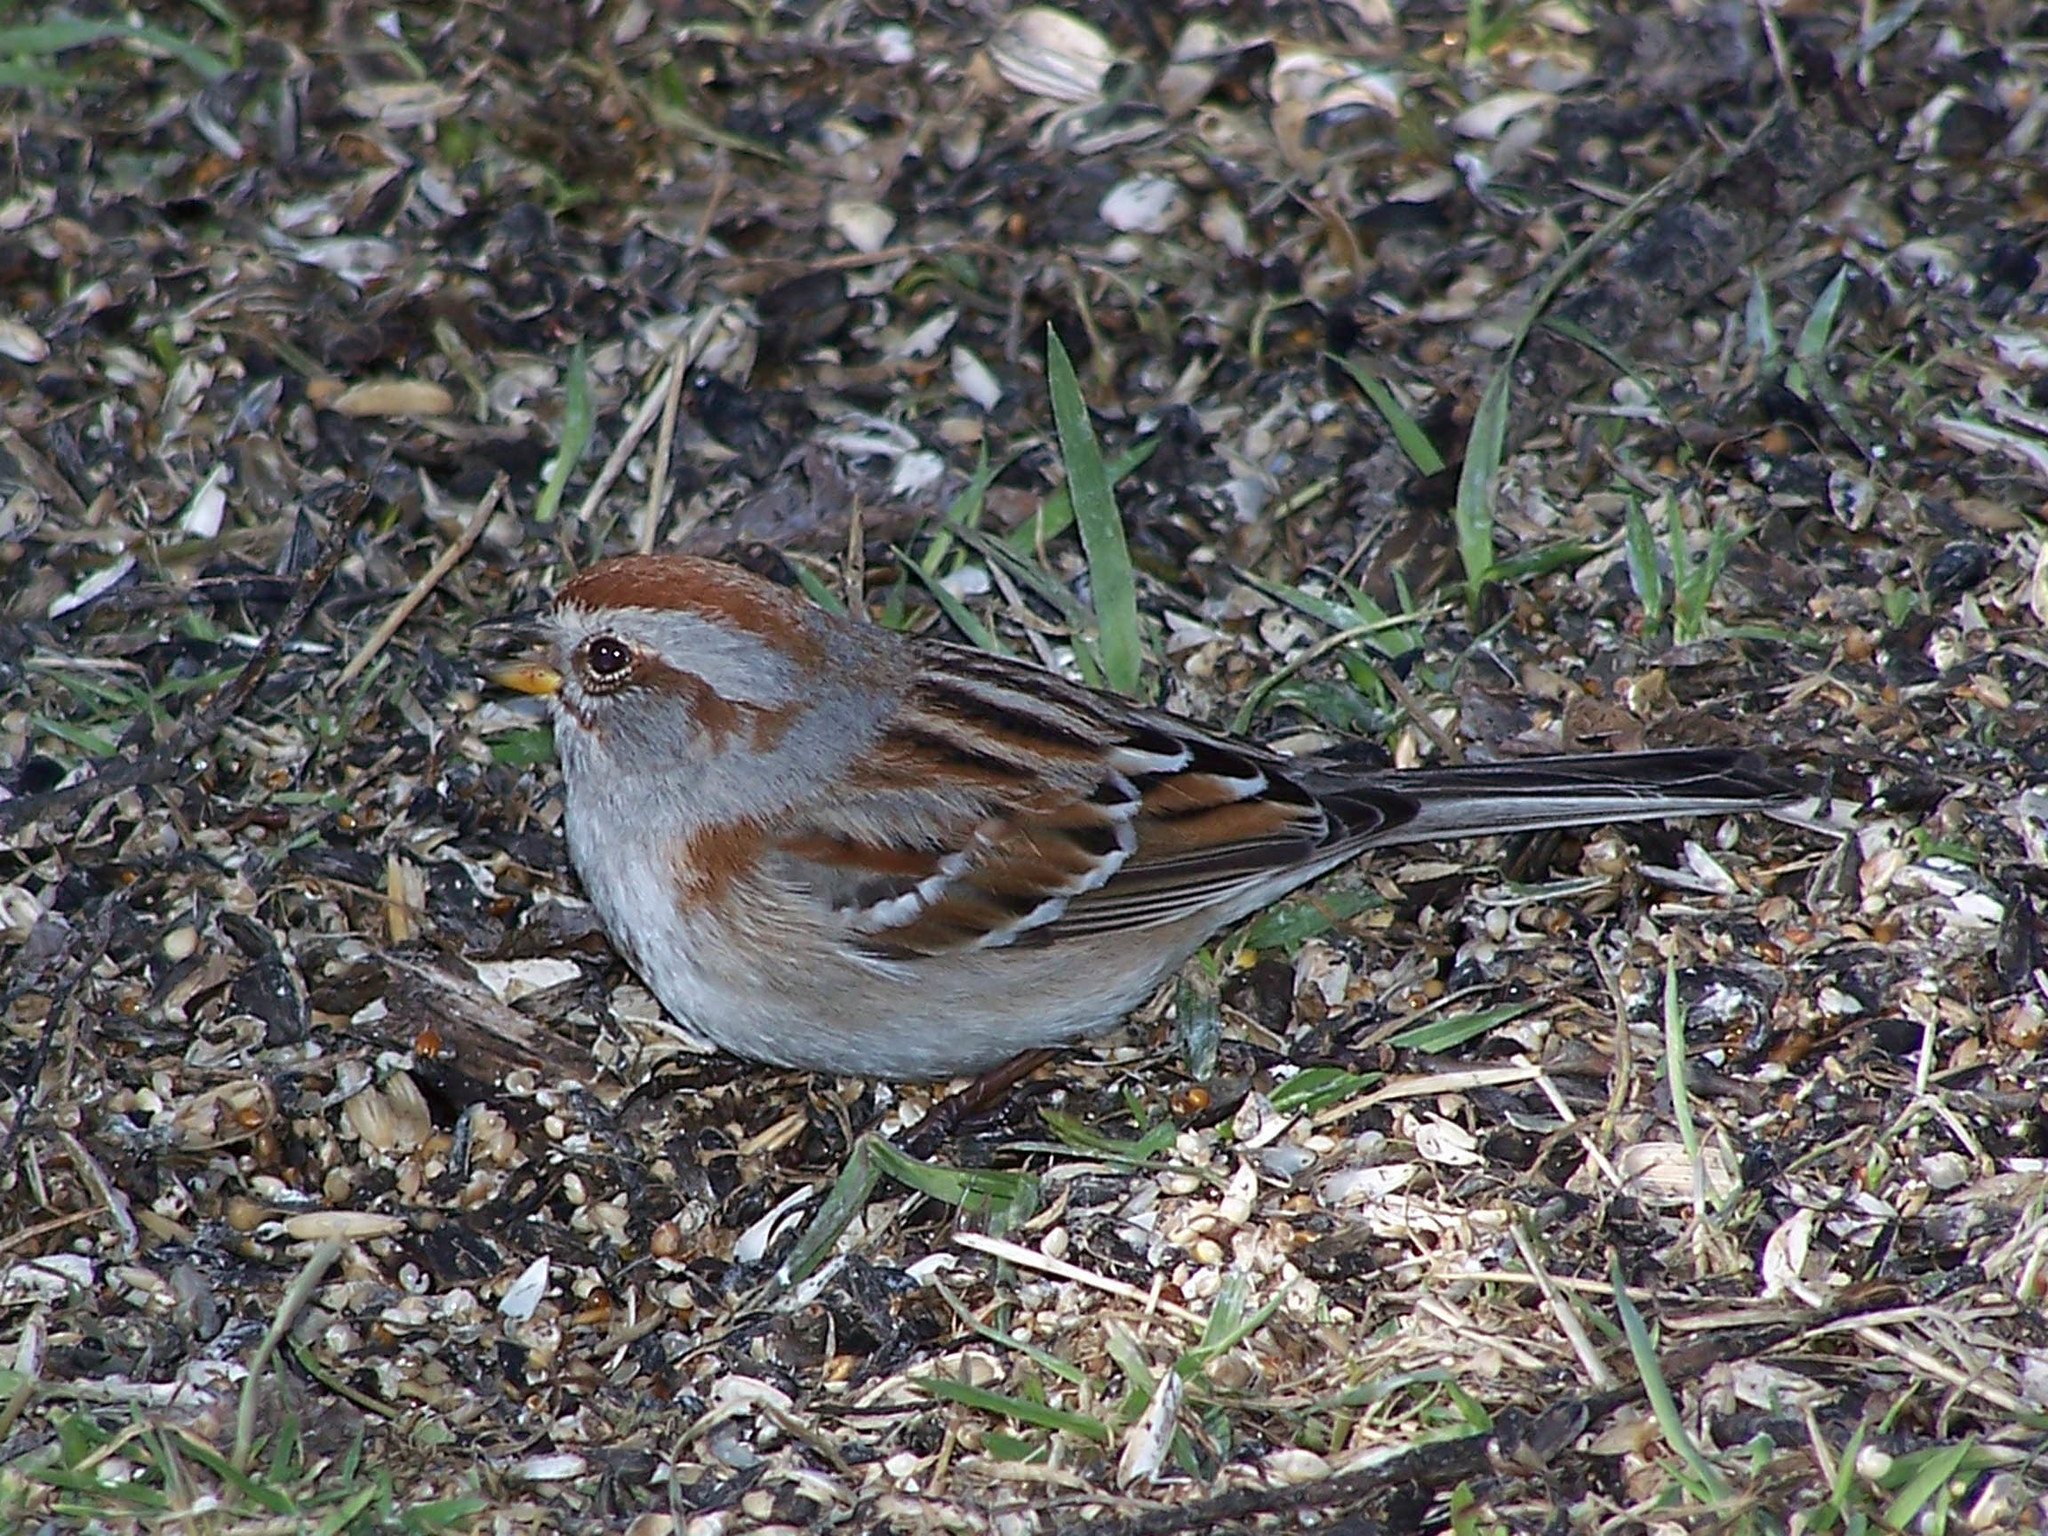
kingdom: Animalia
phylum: Chordata
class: Aves
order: Passeriformes
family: Passerellidae
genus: Spizelloides
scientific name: Spizelloides arborea
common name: American tree sparrow
